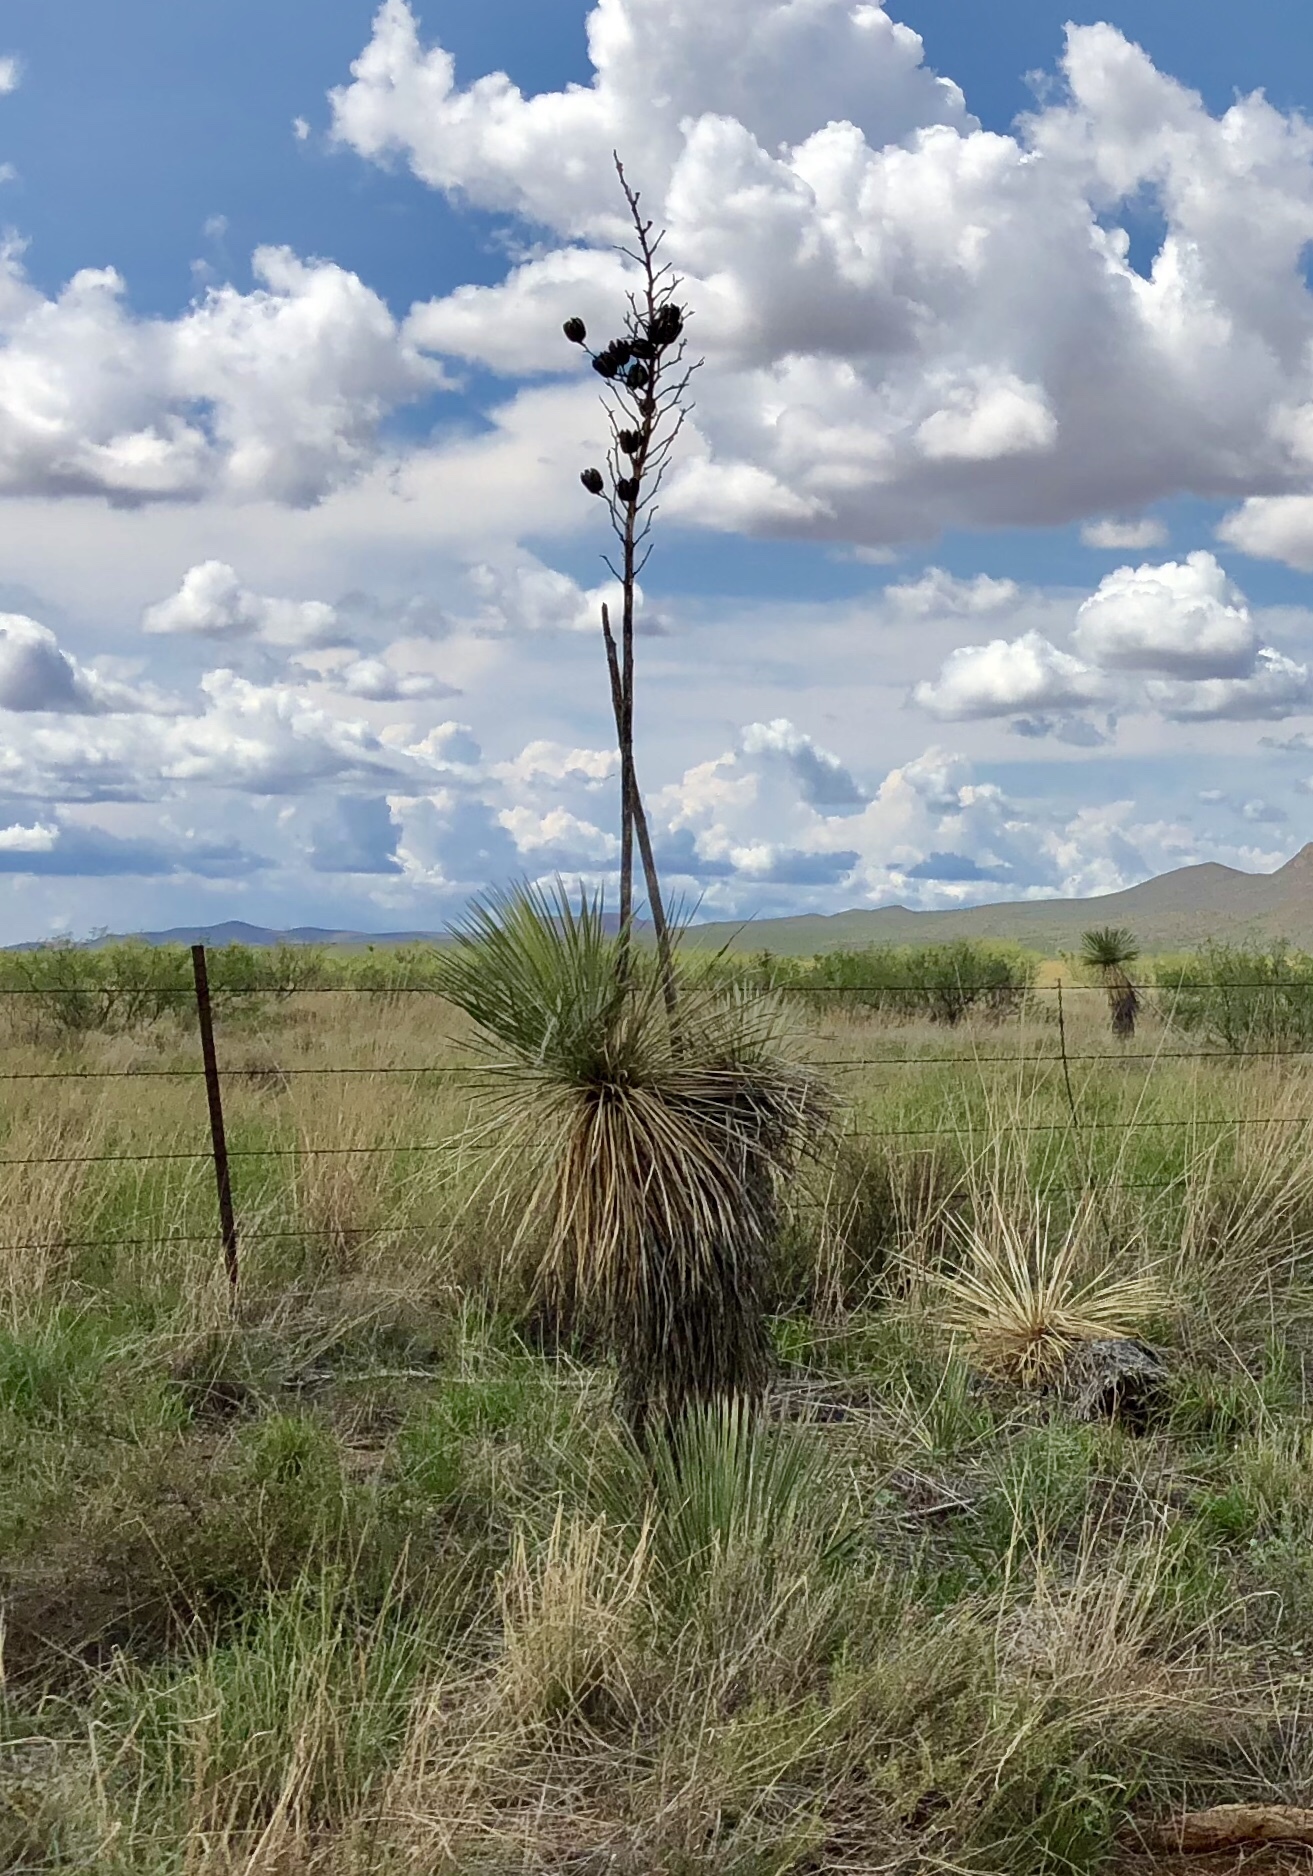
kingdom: Plantae
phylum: Tracheophyta
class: Liliopsida
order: Asparagales
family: Asparagaceae
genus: Yucca
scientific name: Yucca elata
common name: Palmella
